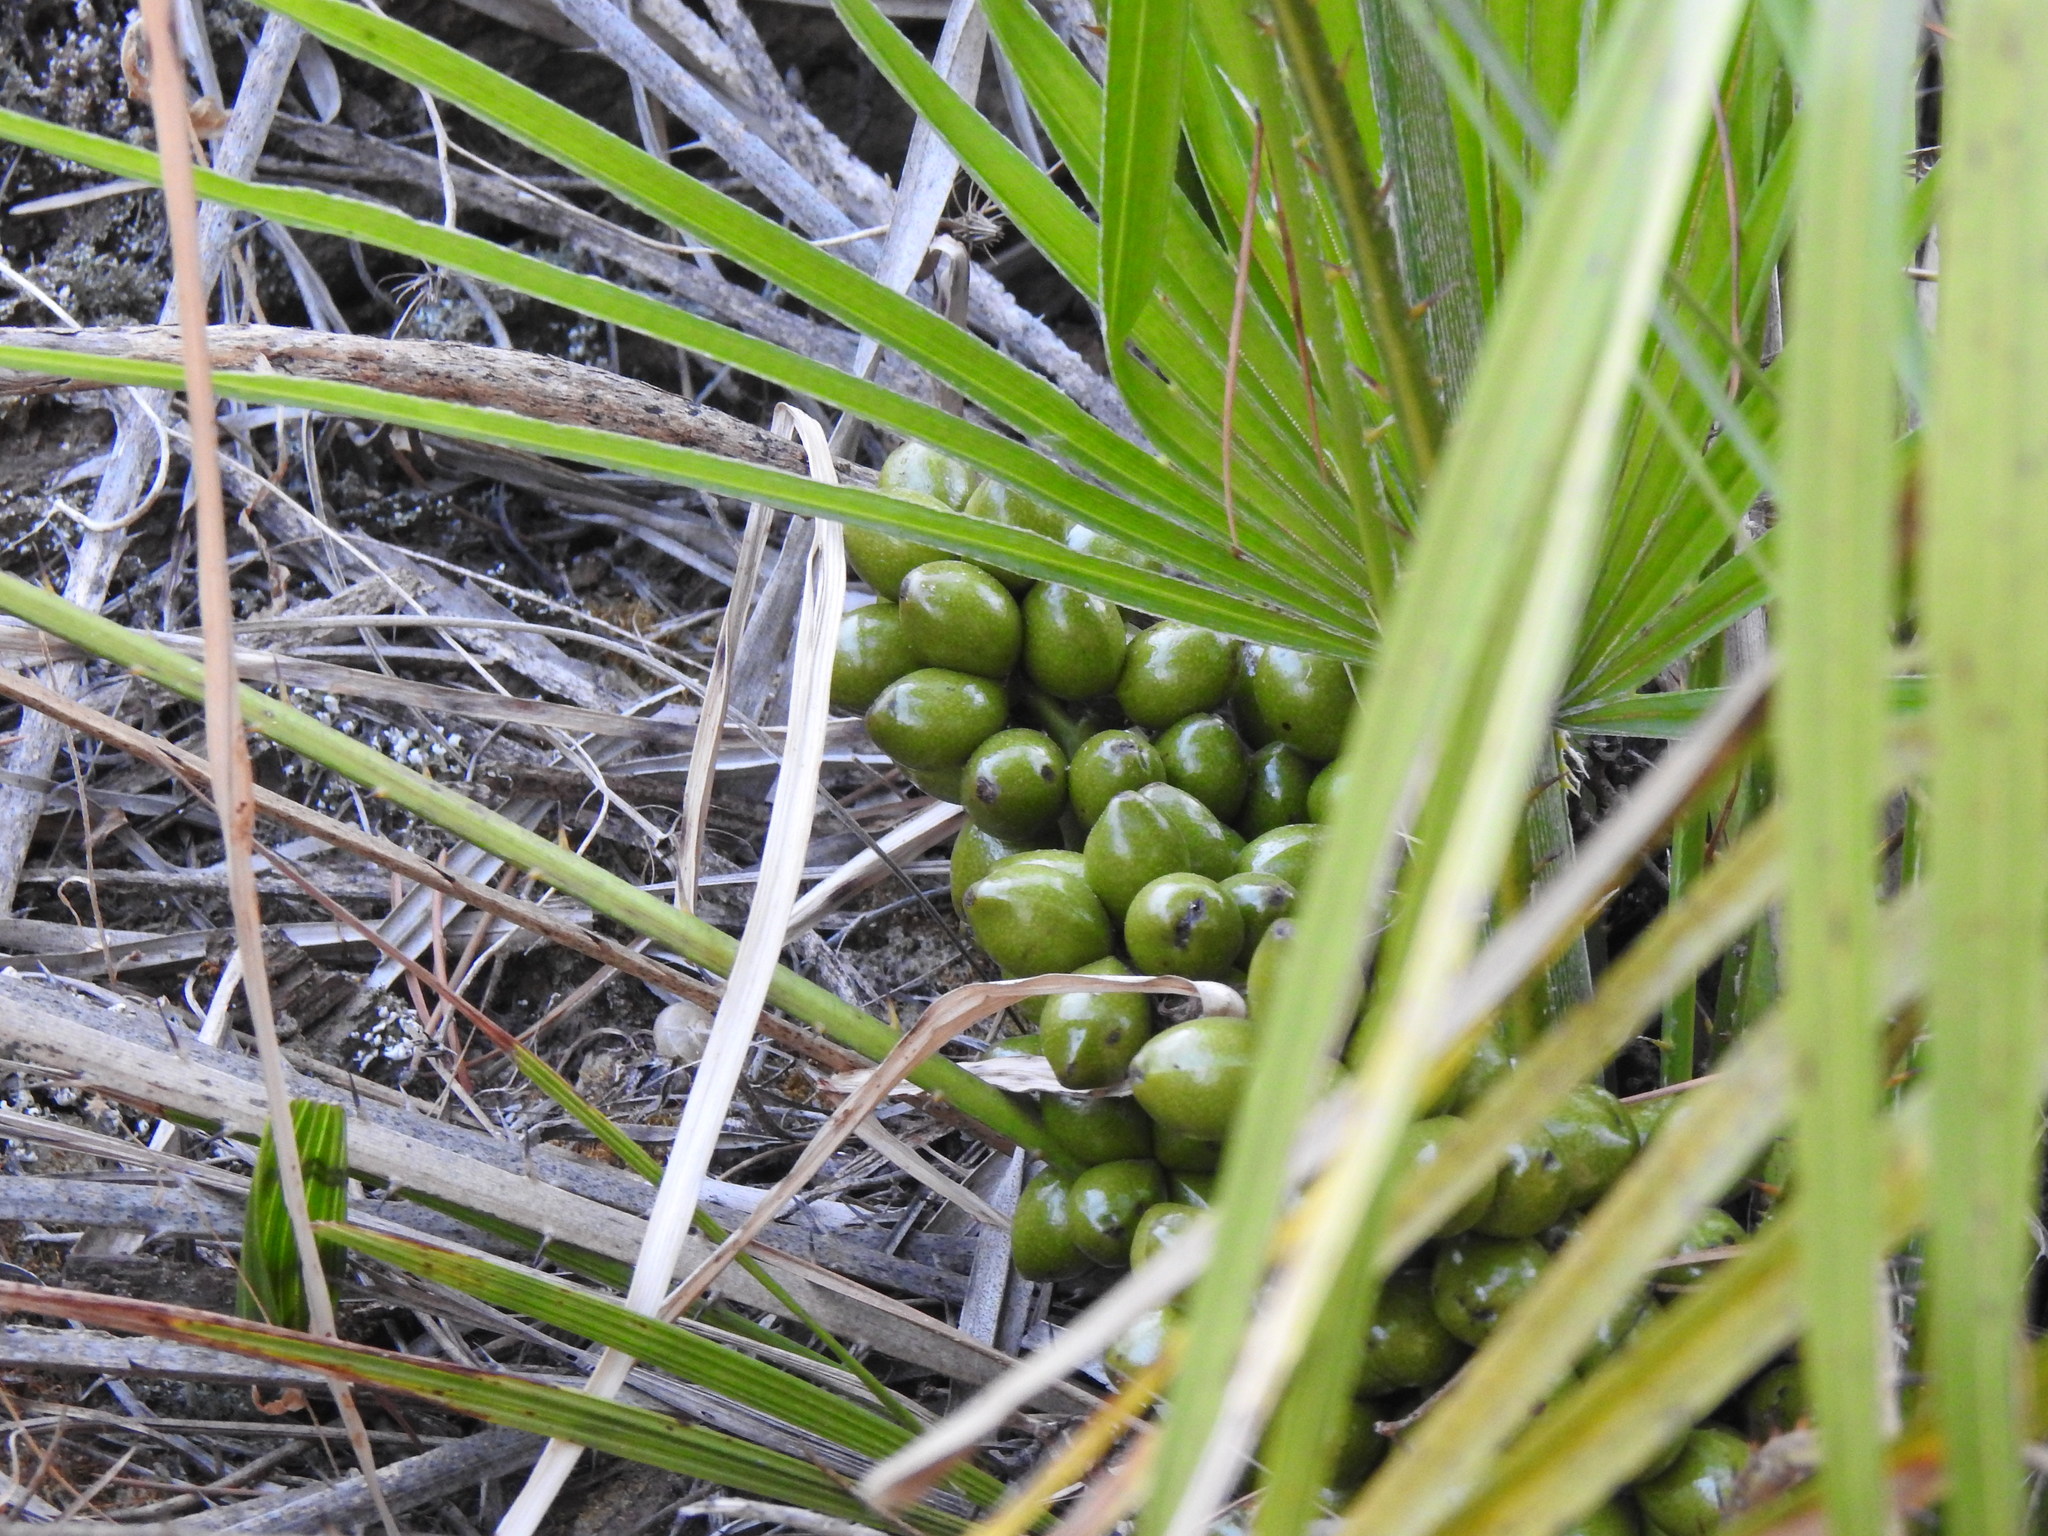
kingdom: Plantae
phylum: Tracheophyta
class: Liliopsida
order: Arecales
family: Arecaceae
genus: Chamaerops
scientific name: Chamaerops humilis
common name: Dwarf fan palm
